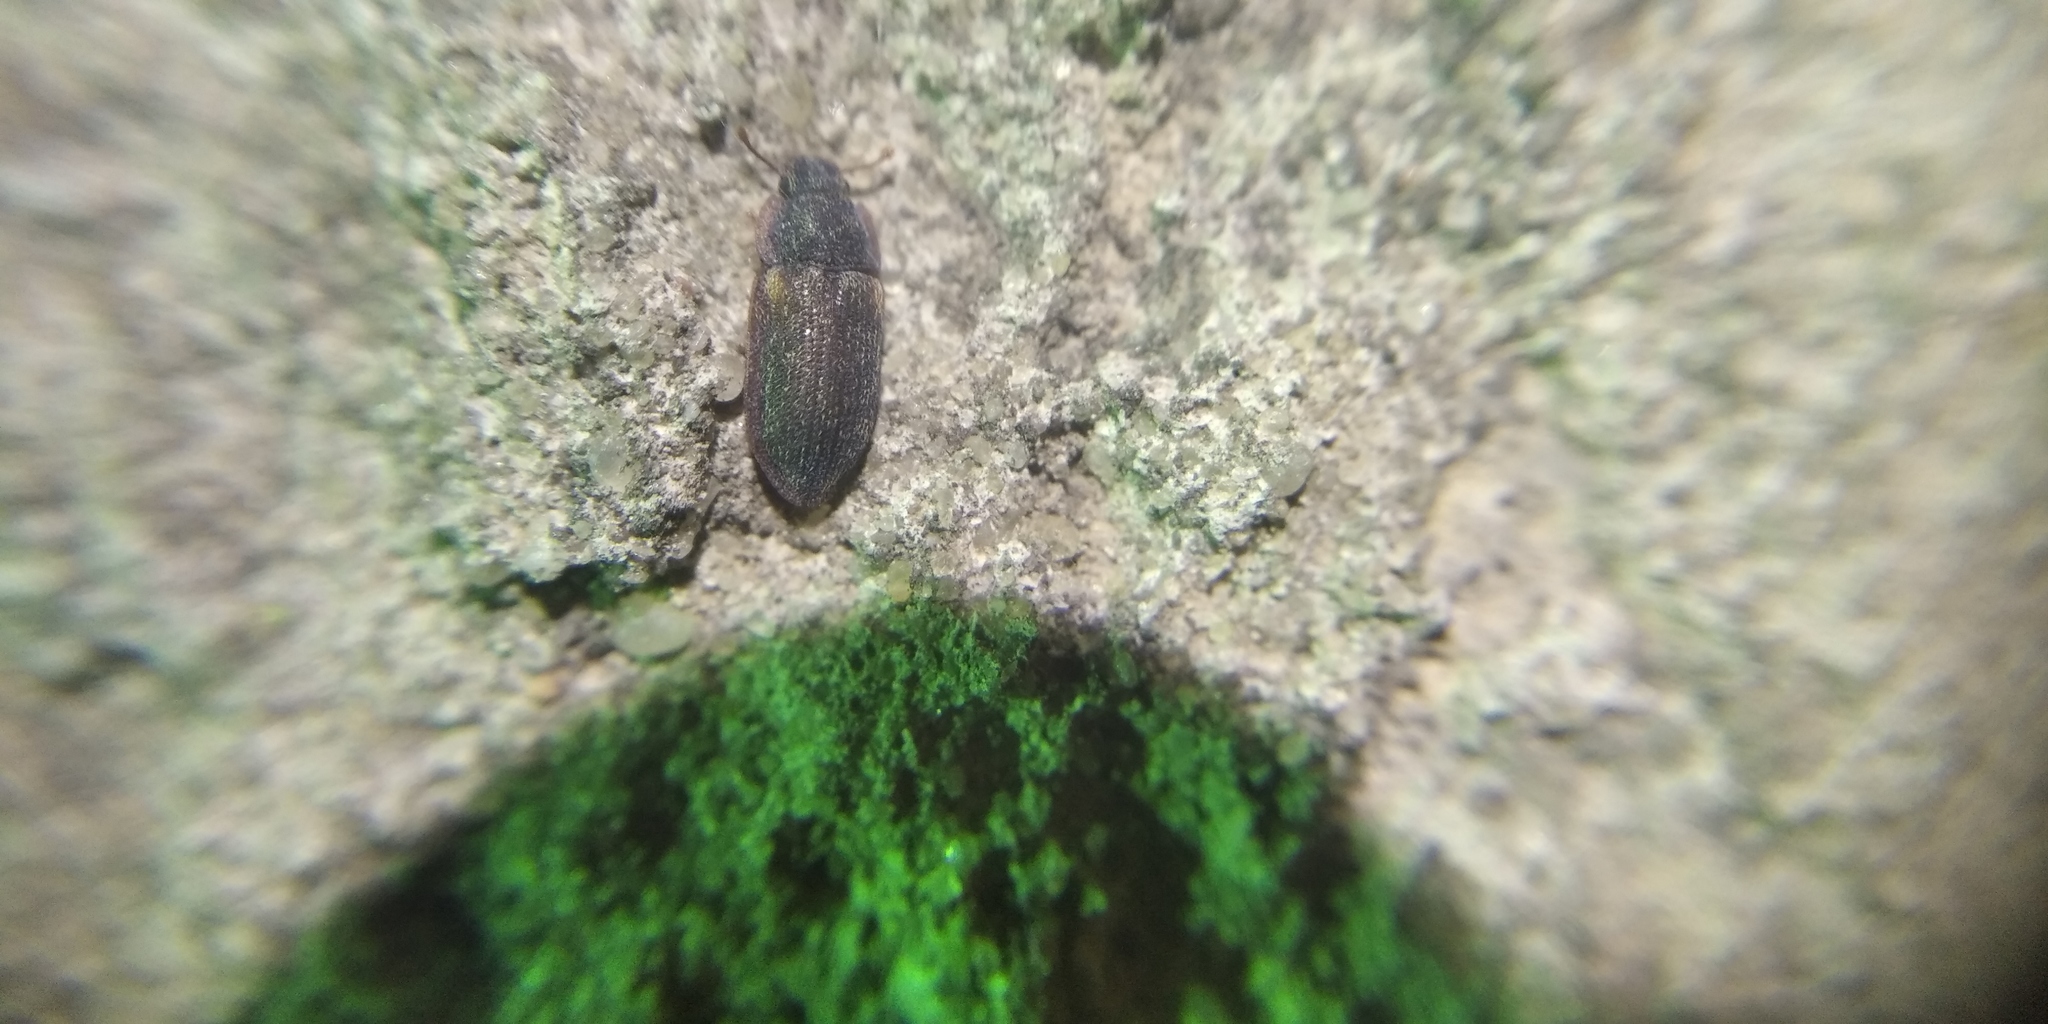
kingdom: Animalia
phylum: Arthropoda
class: Insecta
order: Coleoptera
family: Zopheridae
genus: Colobicus
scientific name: Colobicus hirtus
